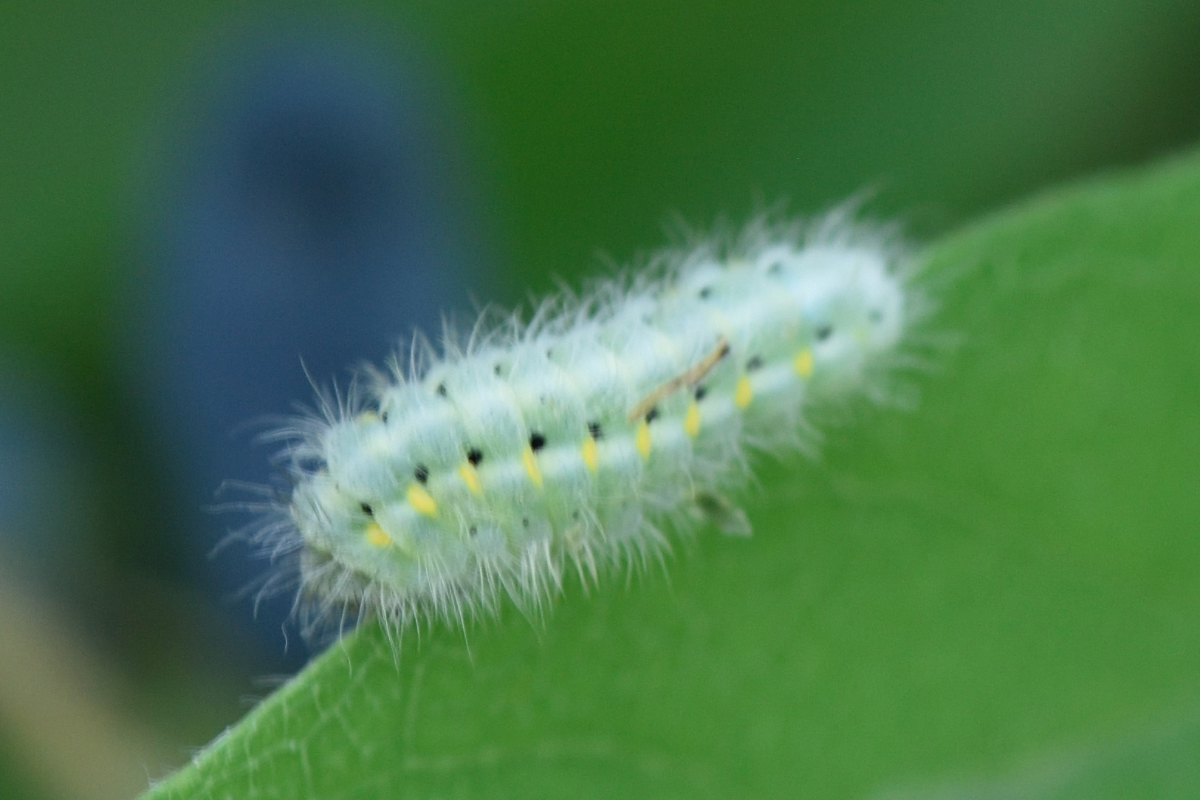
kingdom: Animalia
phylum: Arthropoda
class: Insecta
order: Lepidoptera
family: Zygaenidae
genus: Zygaena
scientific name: Zygaena viciae
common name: New forest burnet
